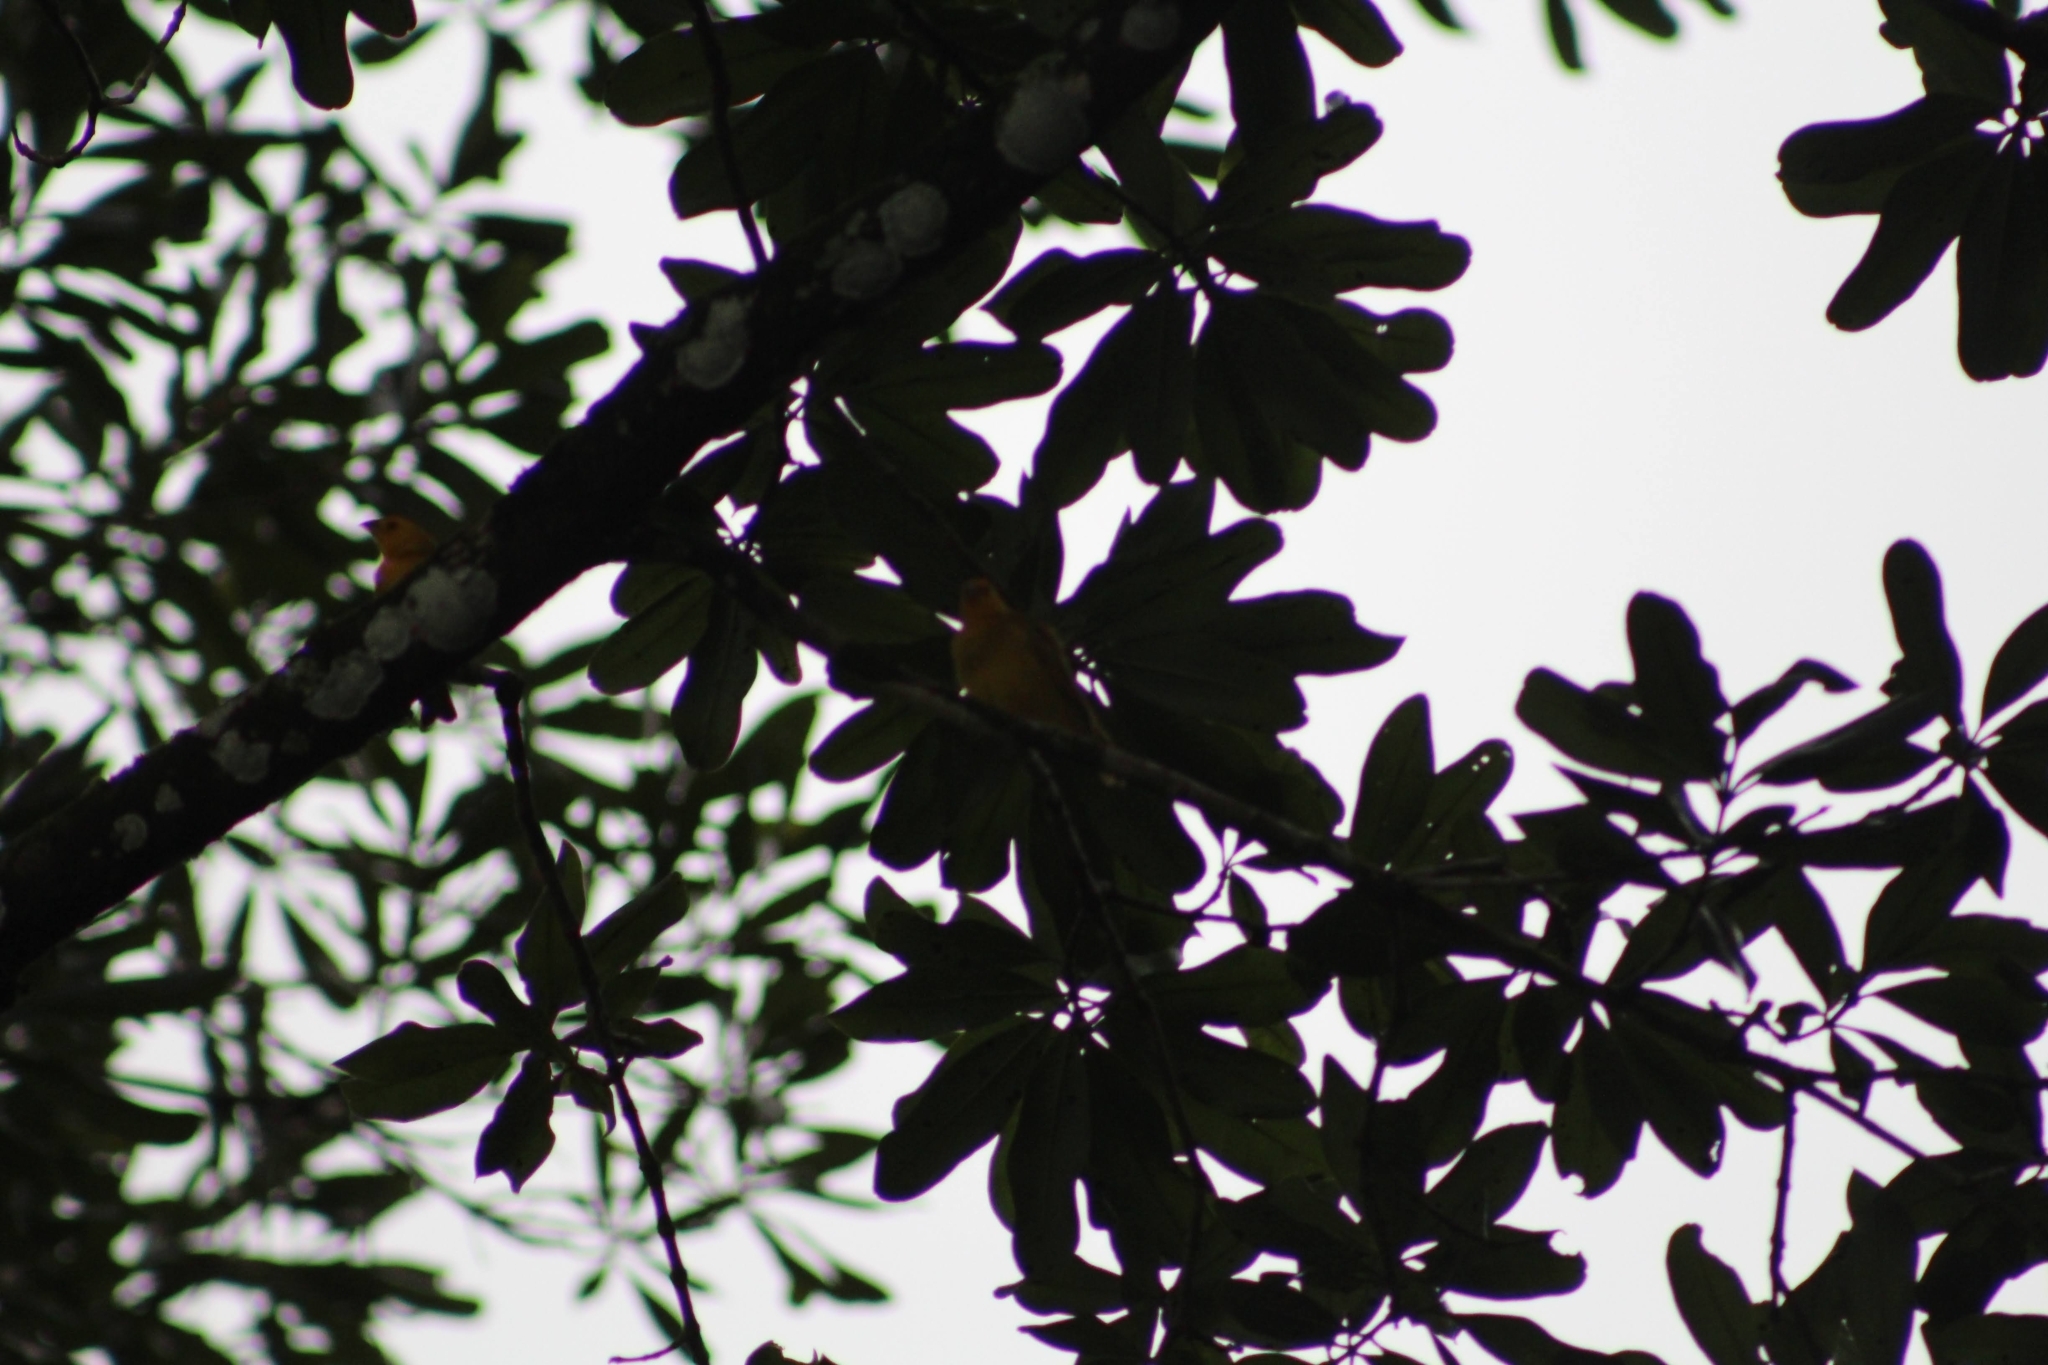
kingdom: Animalia
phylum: Chordata
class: Aves
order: Passeriformes
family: Thraupidae
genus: Sicalis
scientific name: Sicalis flaveola
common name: Saffron finch
